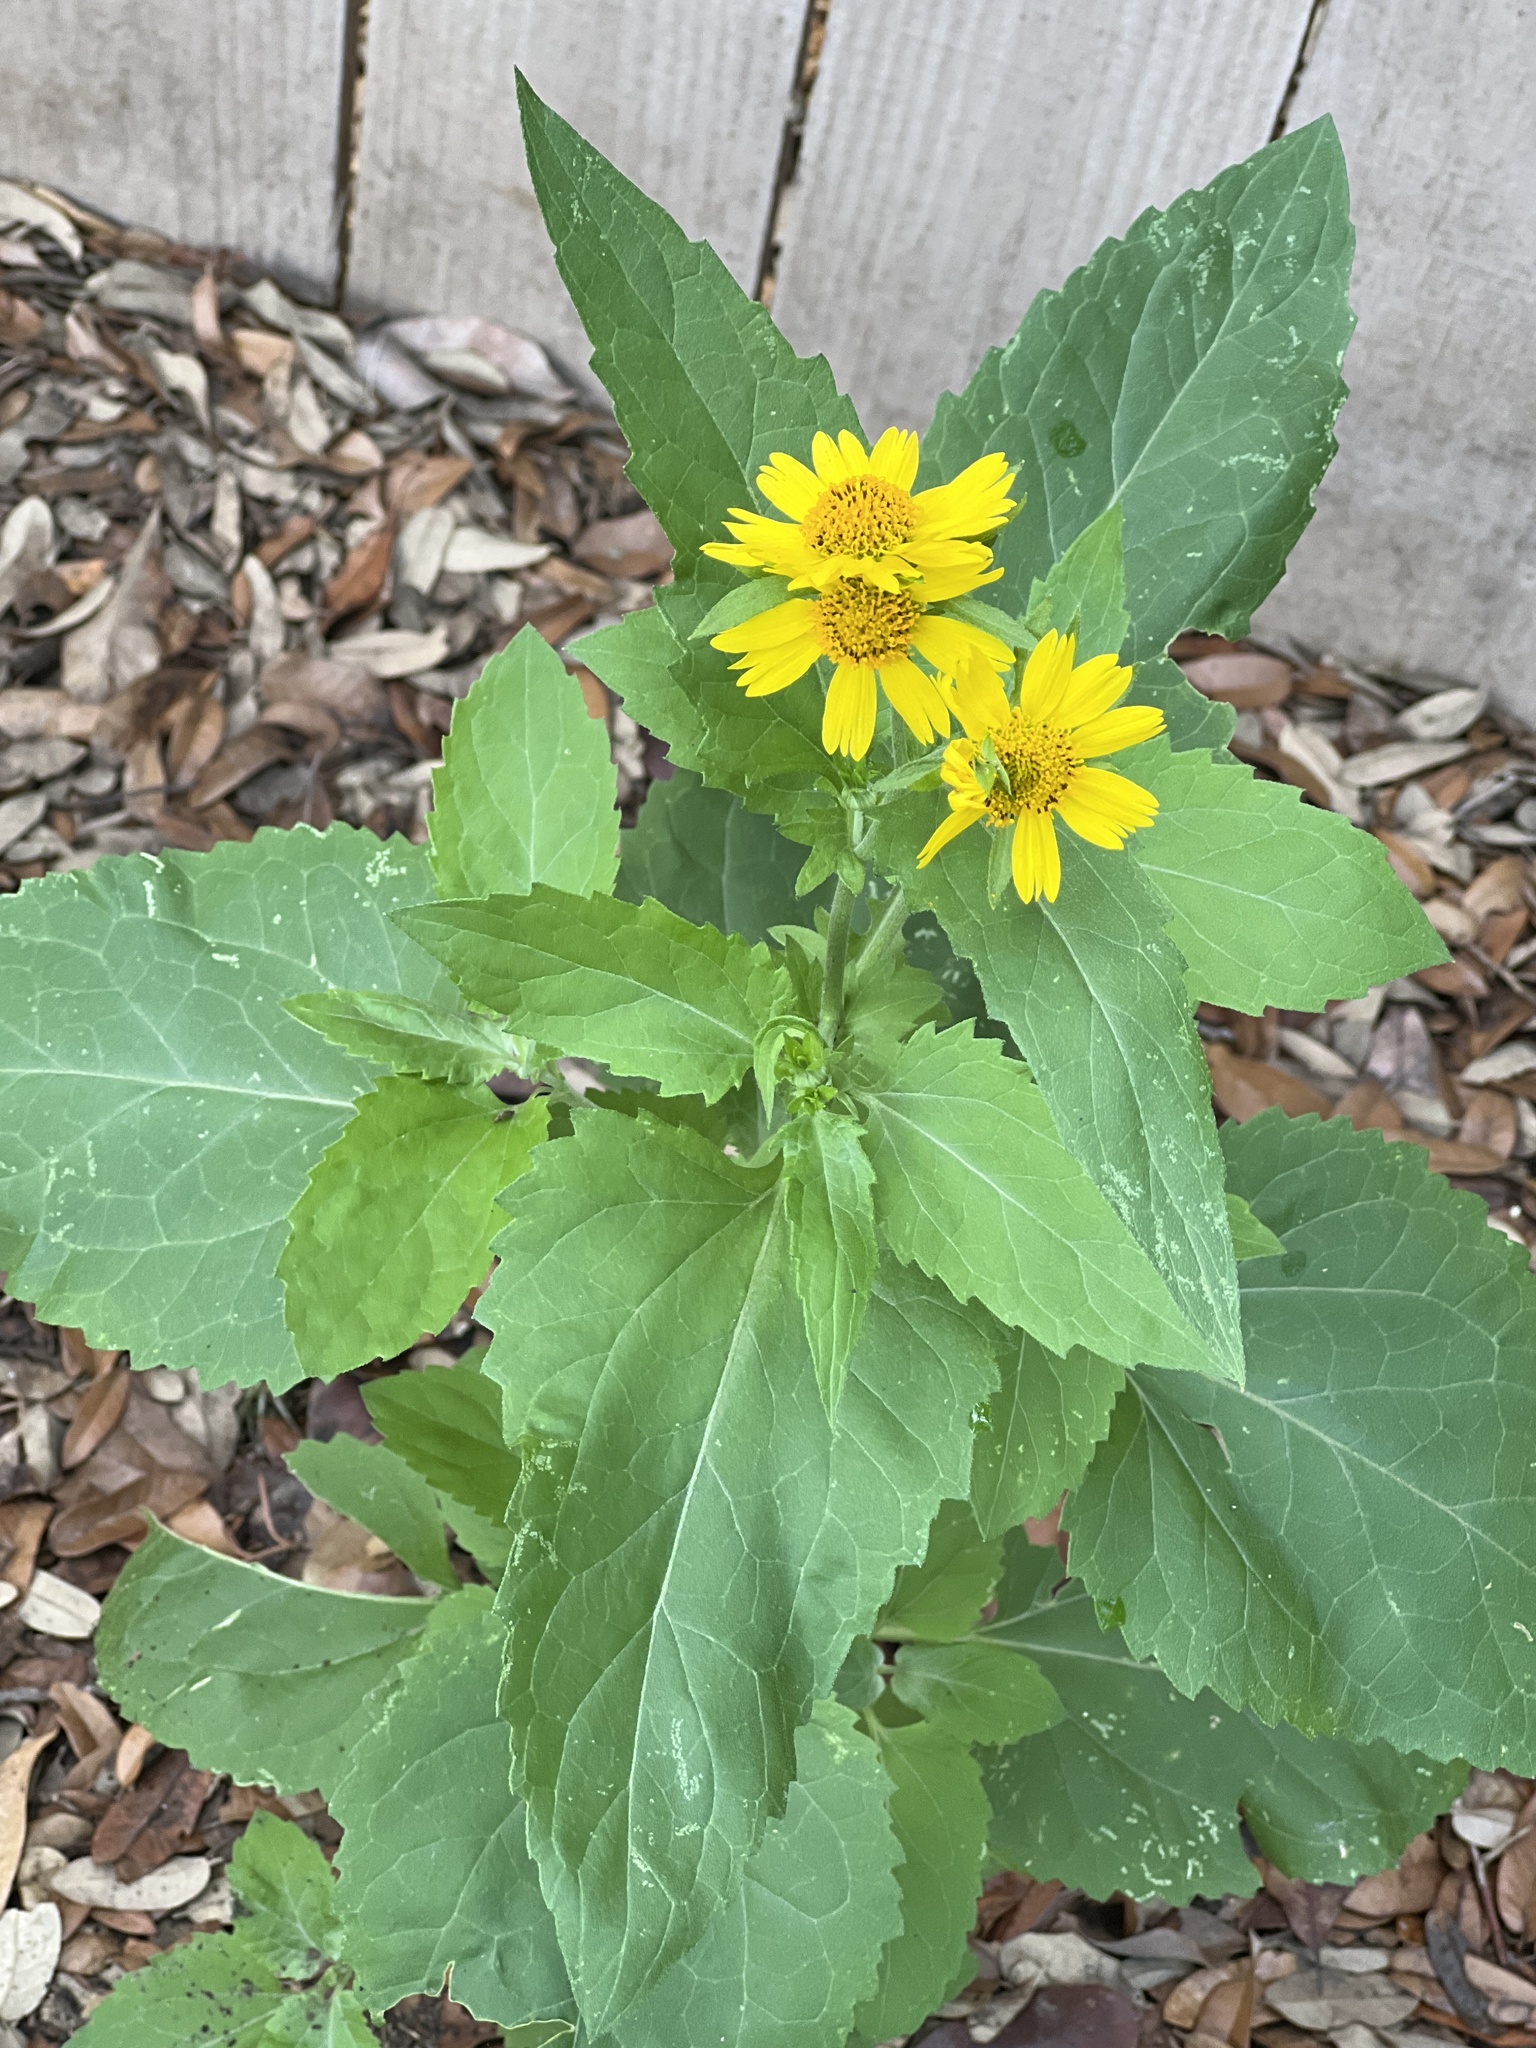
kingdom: Plantae
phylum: Tracheophyta
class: Magnoliopsida
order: Asterales
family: Asteraceae
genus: Verbesina
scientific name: Verbesina encelioides
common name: Golden crownbeard
